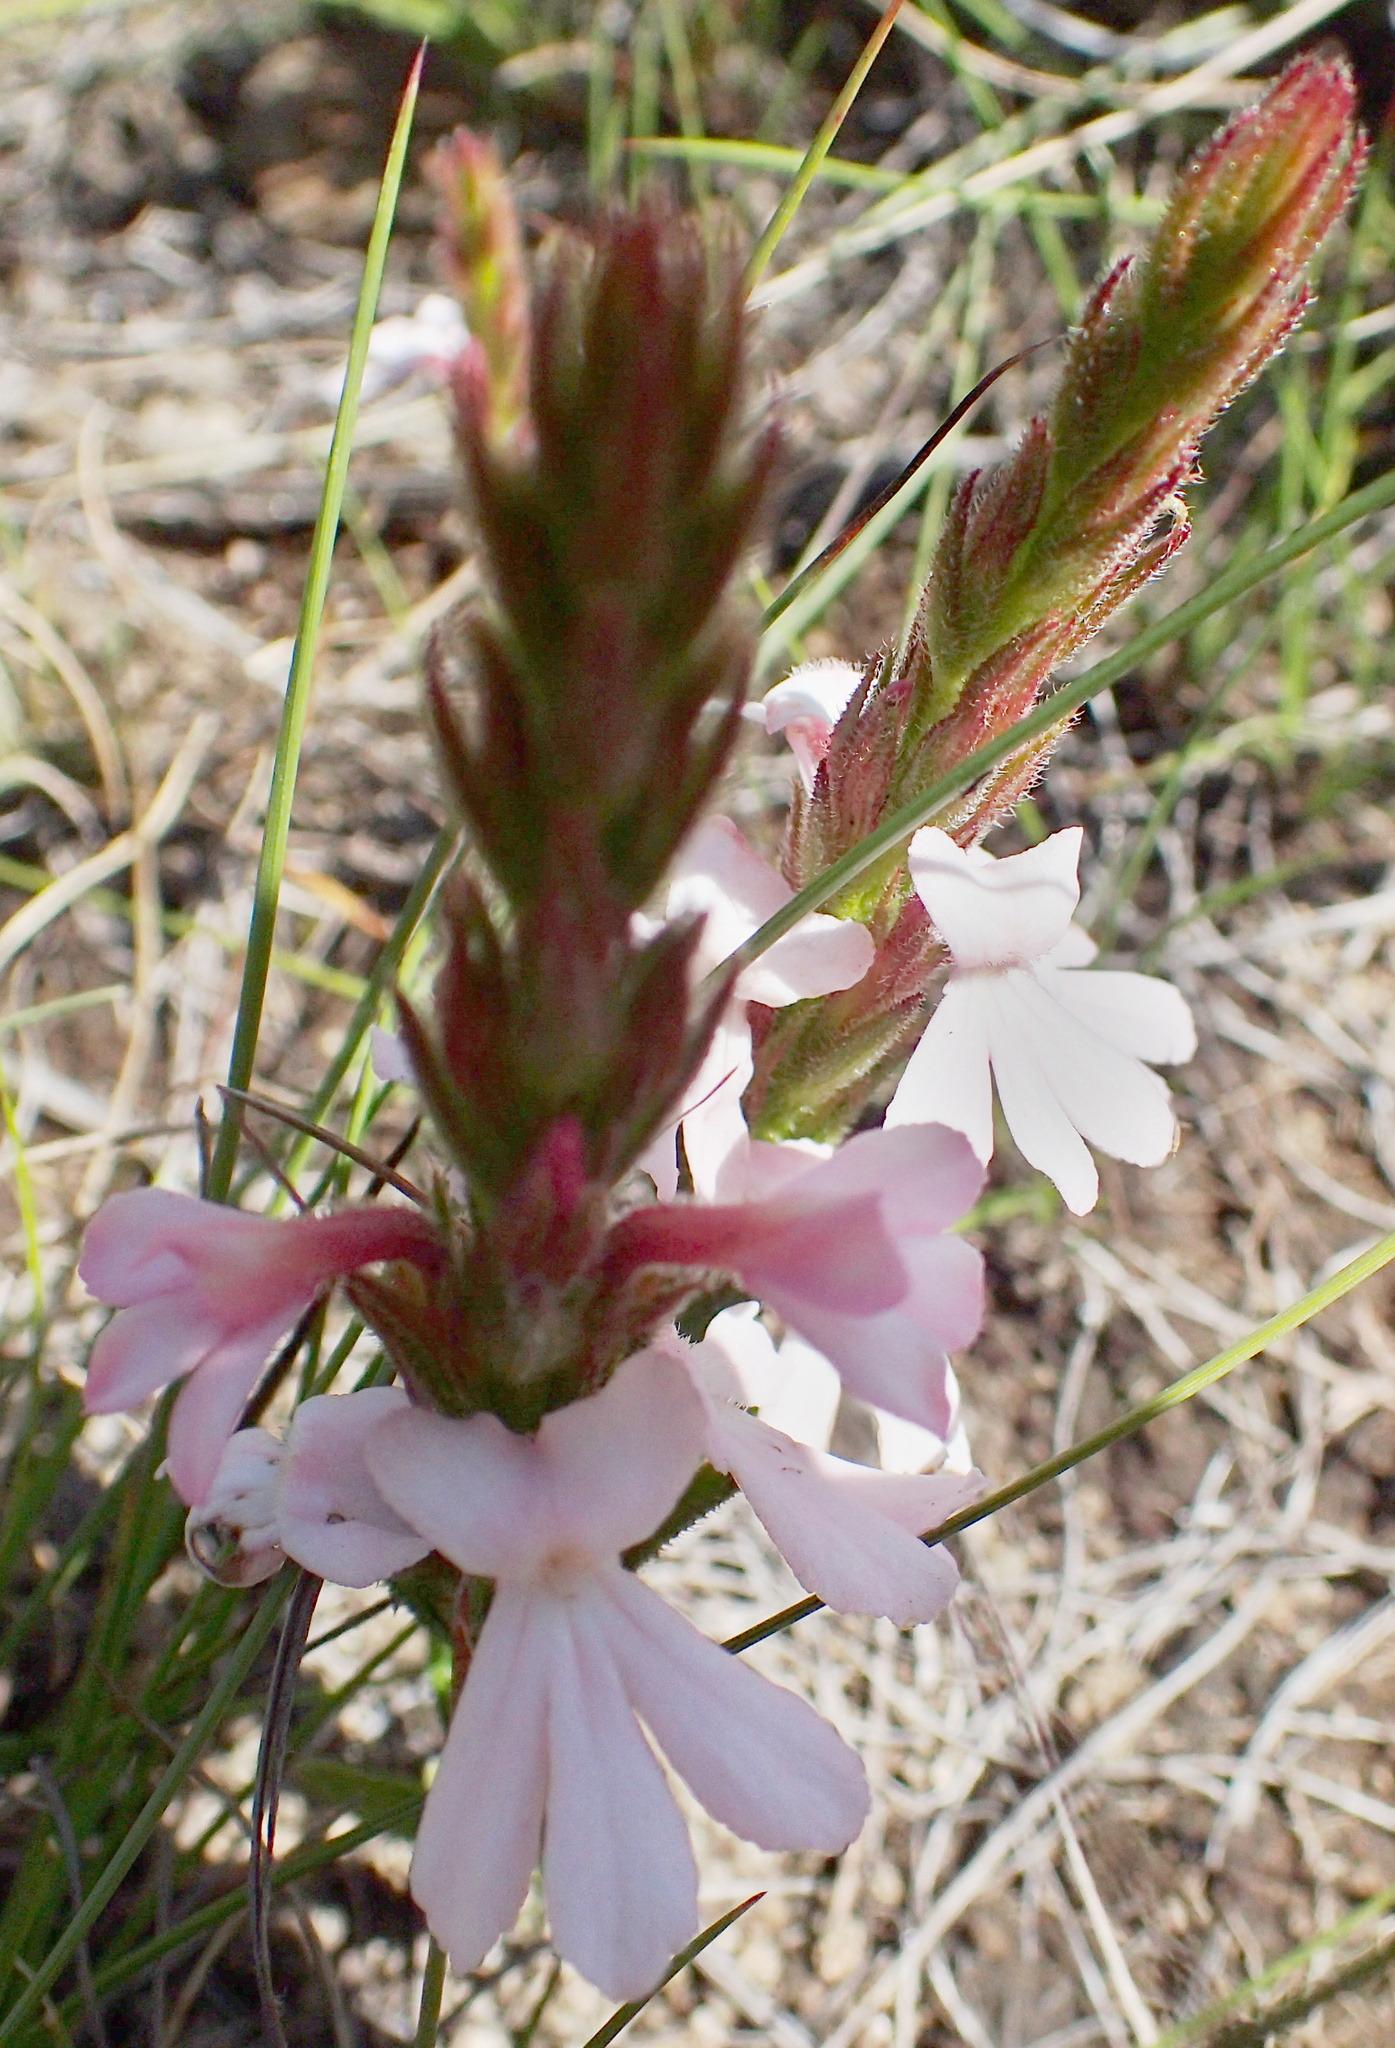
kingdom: Plantae
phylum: Tracheophyta
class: Magnoliopsida
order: Lamiales
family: Orobanchaceae
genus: Striga
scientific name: Striga elegans
